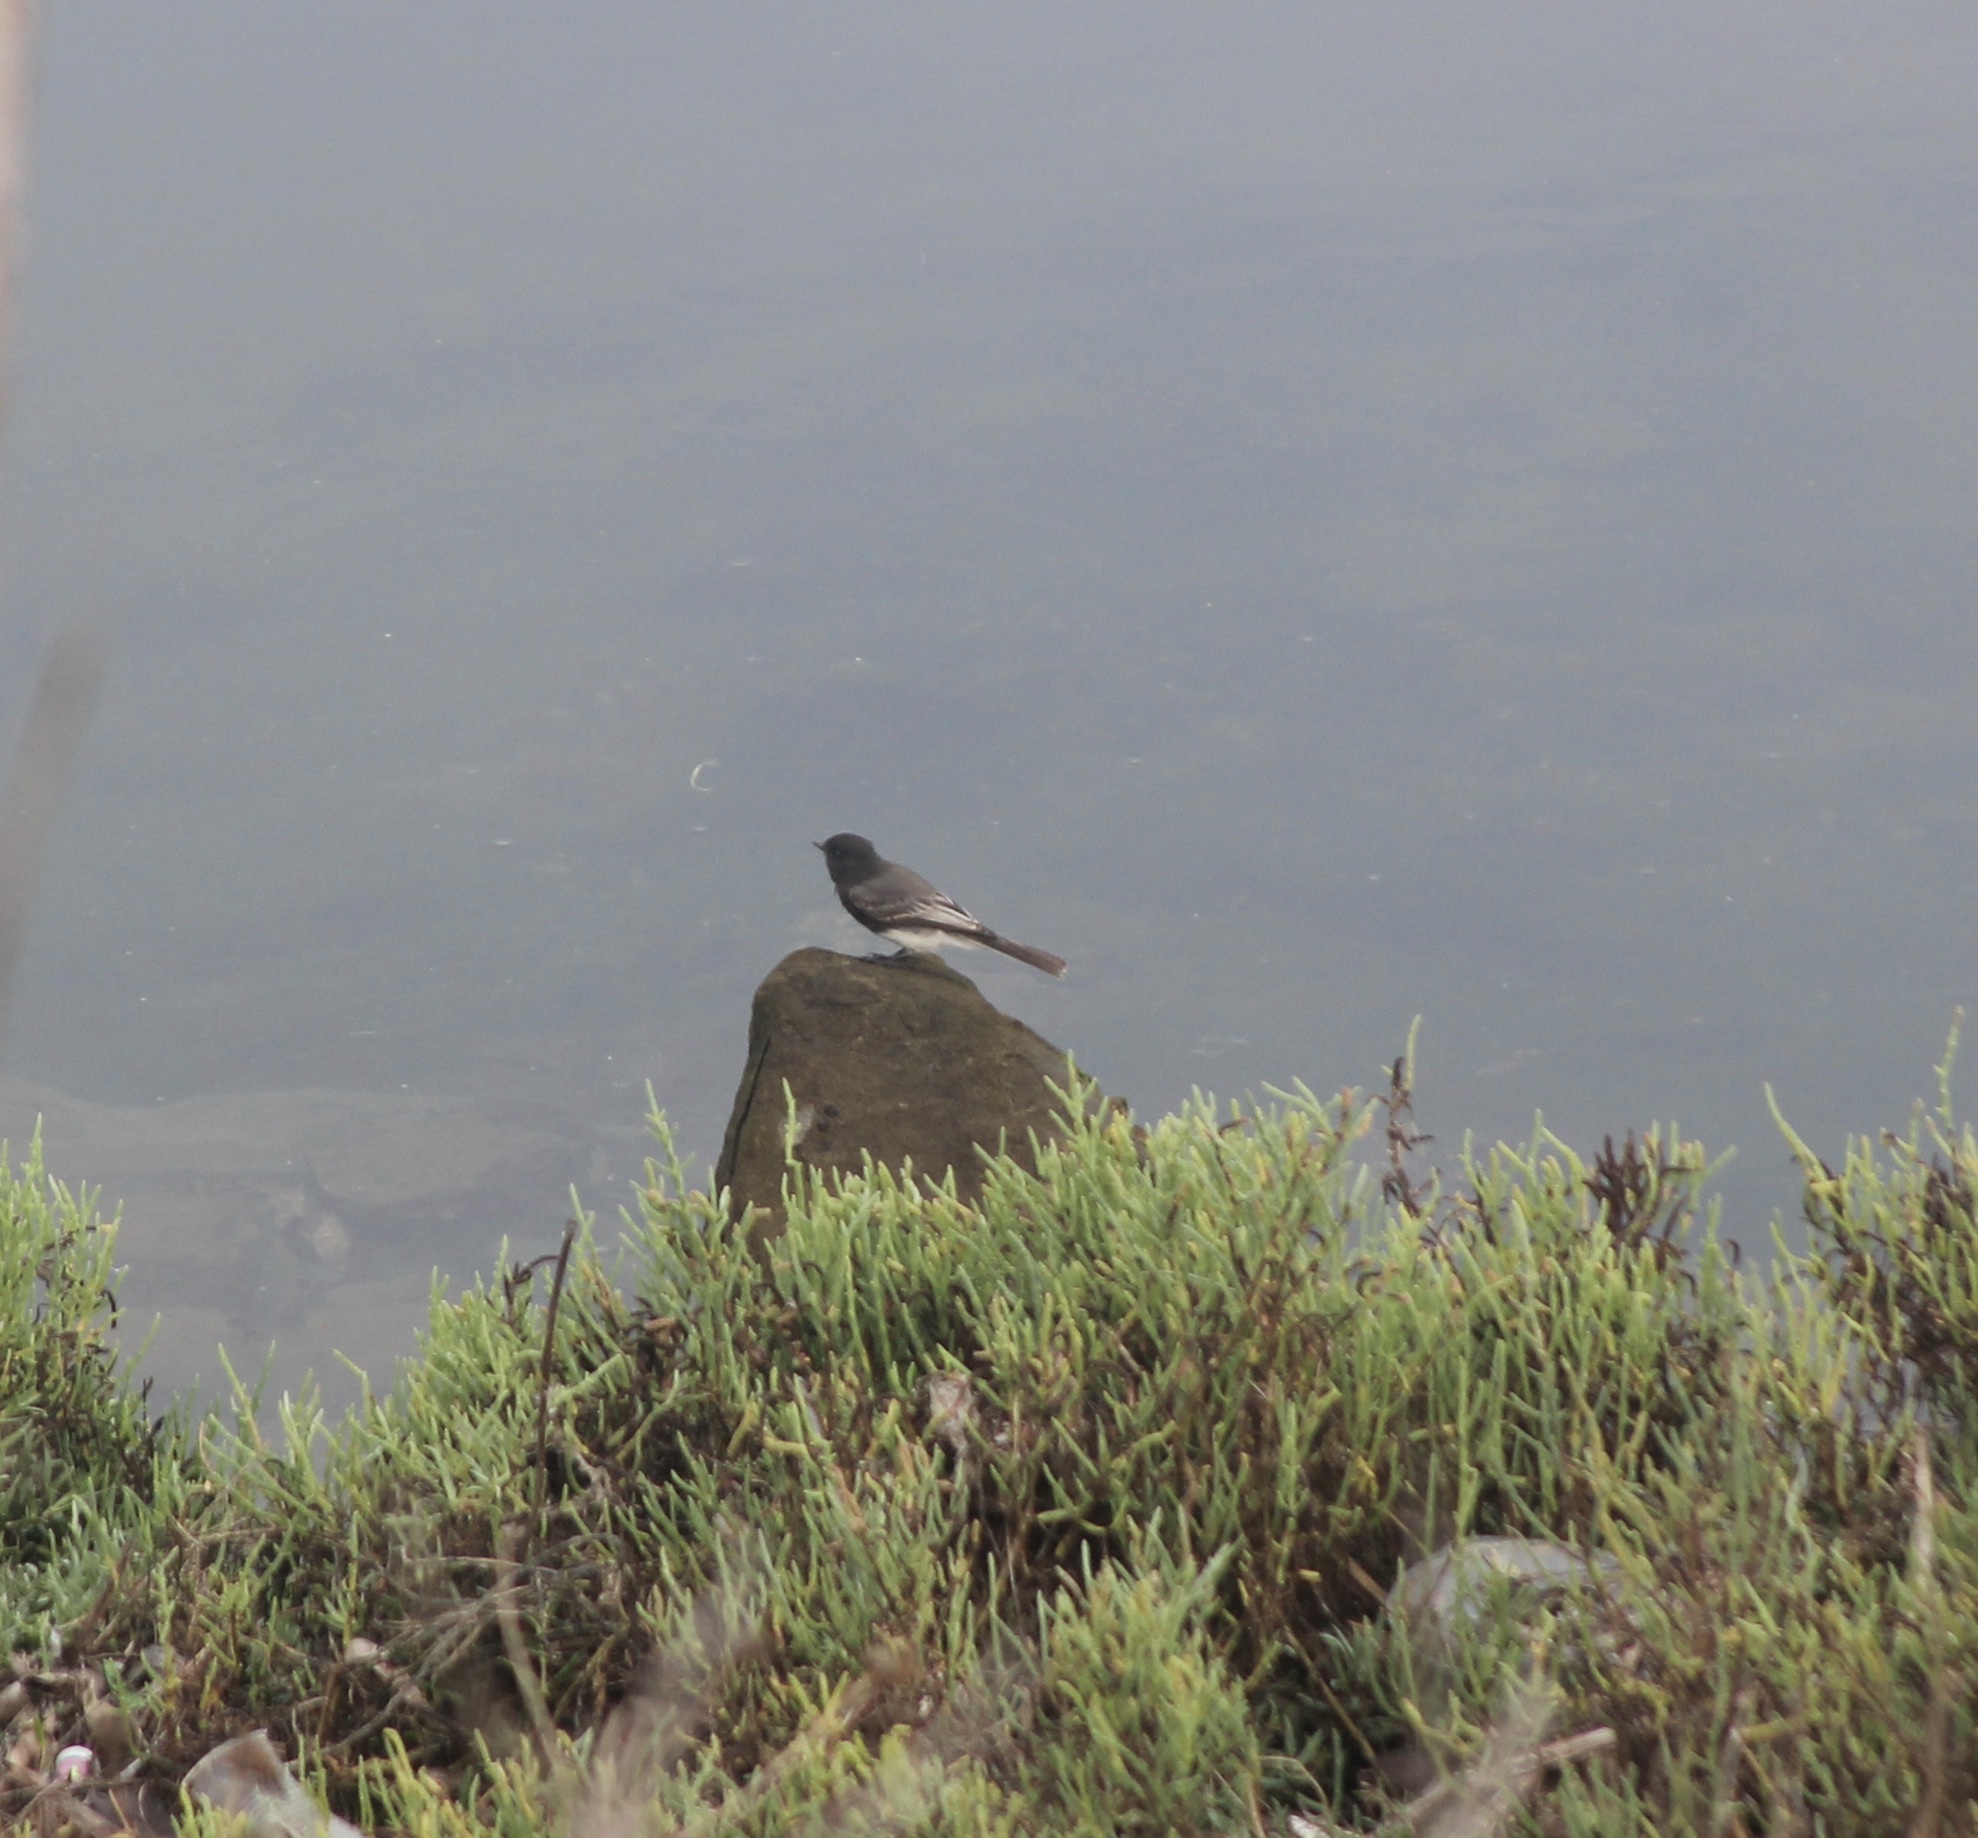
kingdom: Animalia
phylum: Chordata
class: Aves
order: Passeriformes
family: Tyrannidae
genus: Sayornis
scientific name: Sayornis nigricans
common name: Black phoebe
